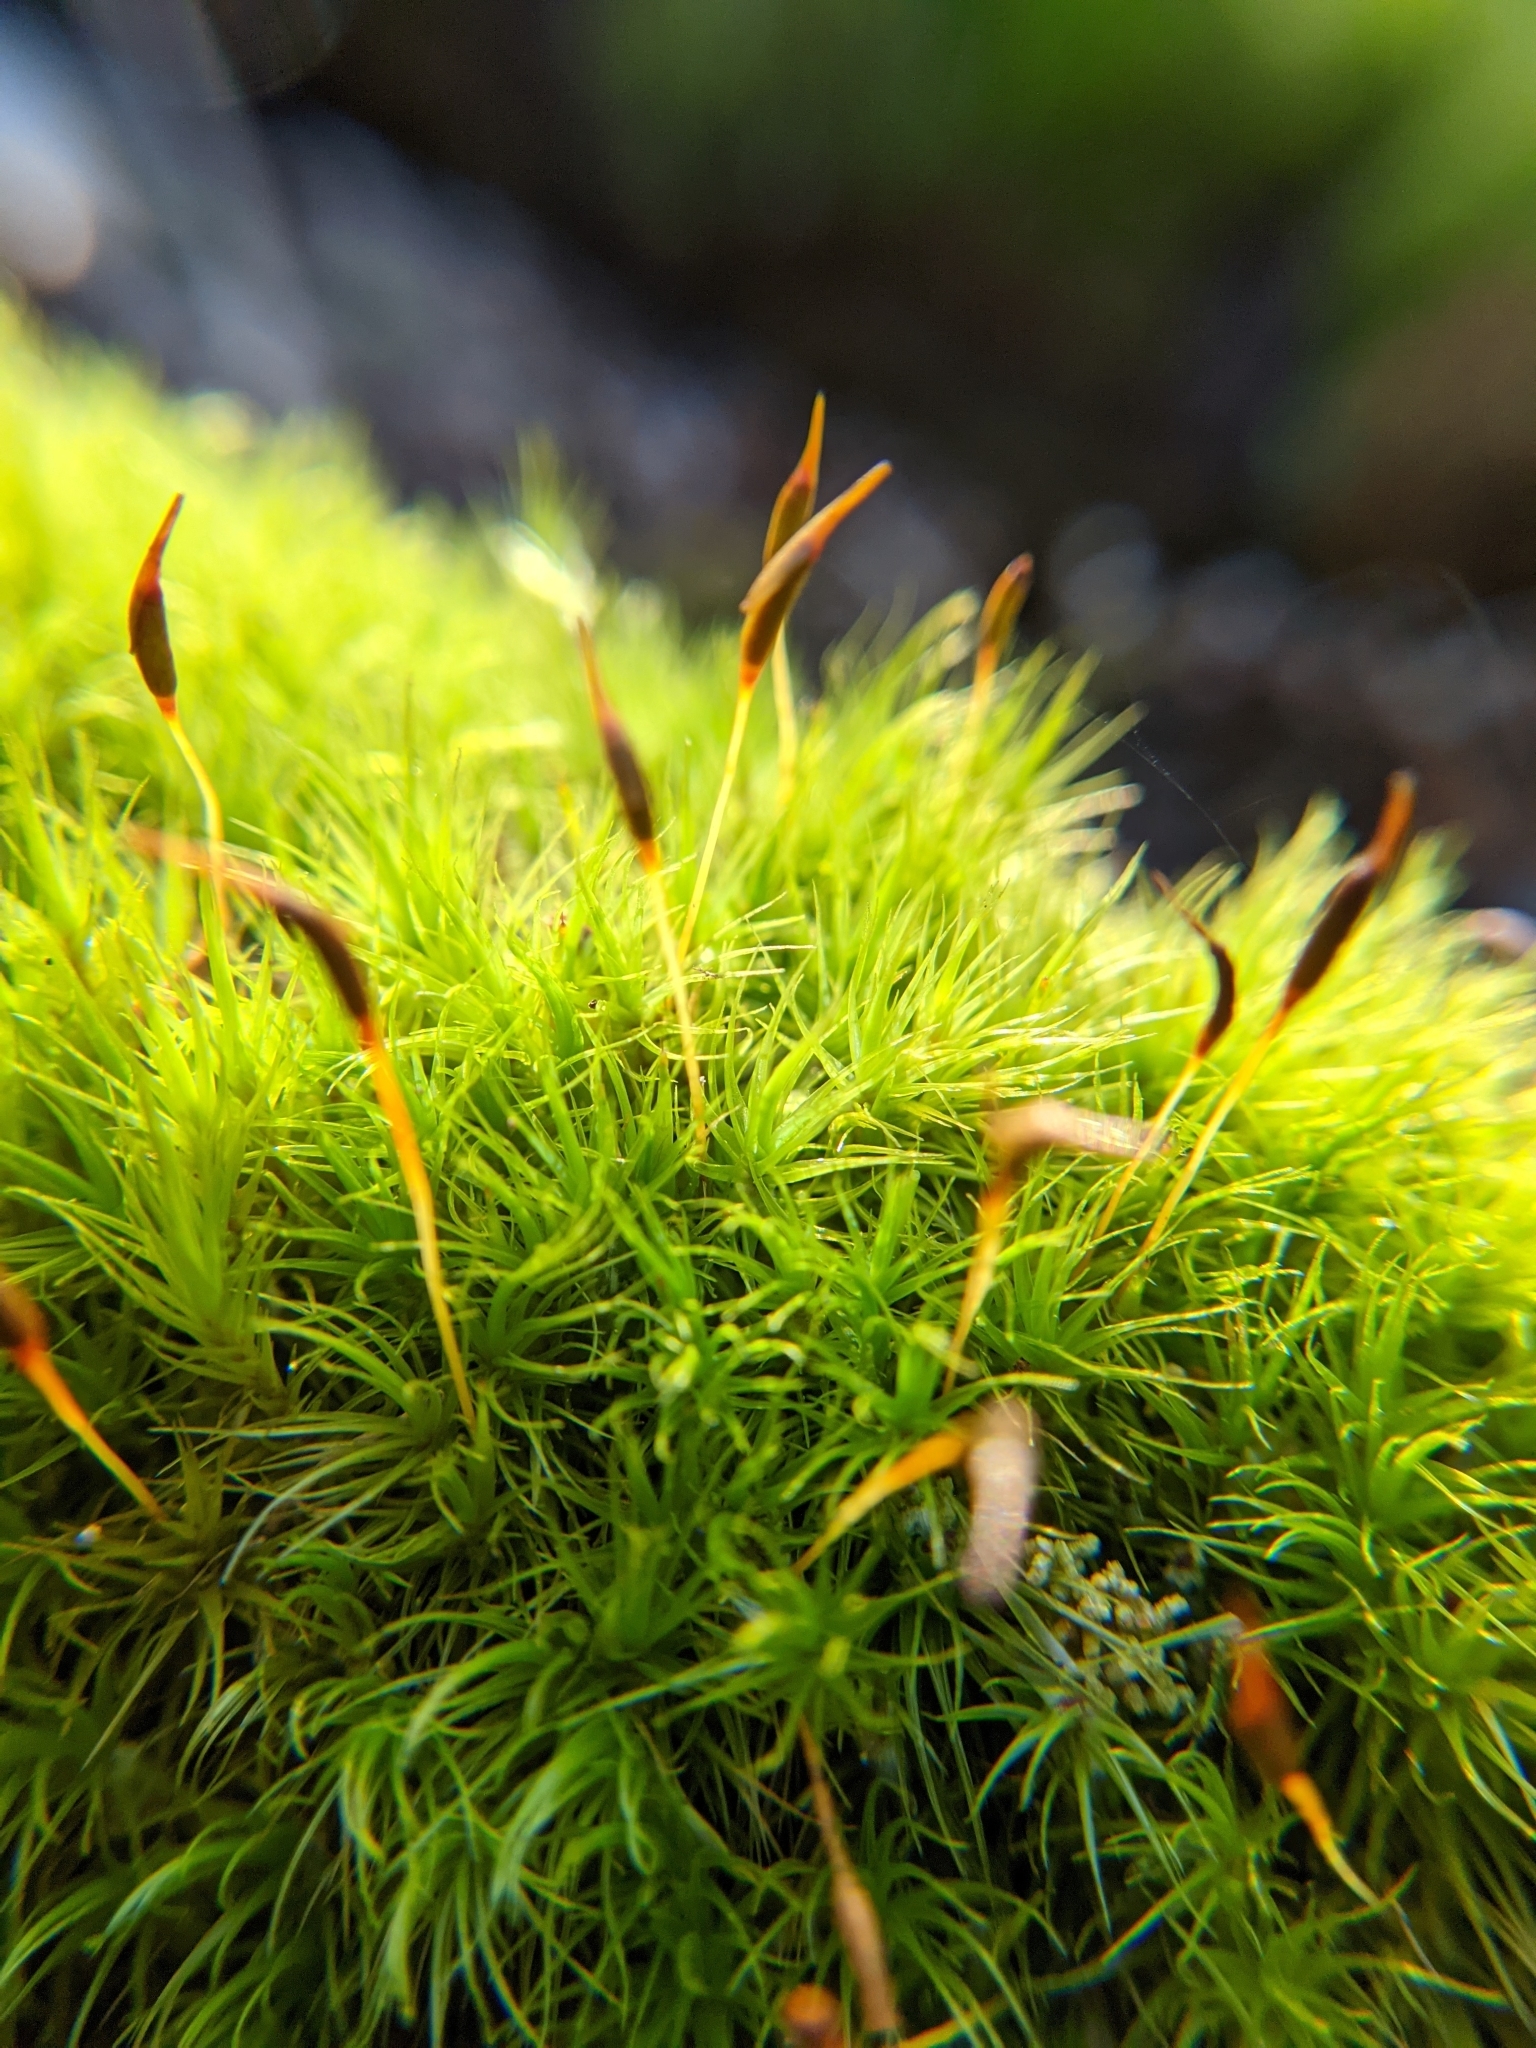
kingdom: Plantae
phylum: Bryophyta
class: Bryopsida
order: Dicranales
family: Dicranaceae
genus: Dicranum
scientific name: Dicranum scoparium
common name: Broom fork-moss
